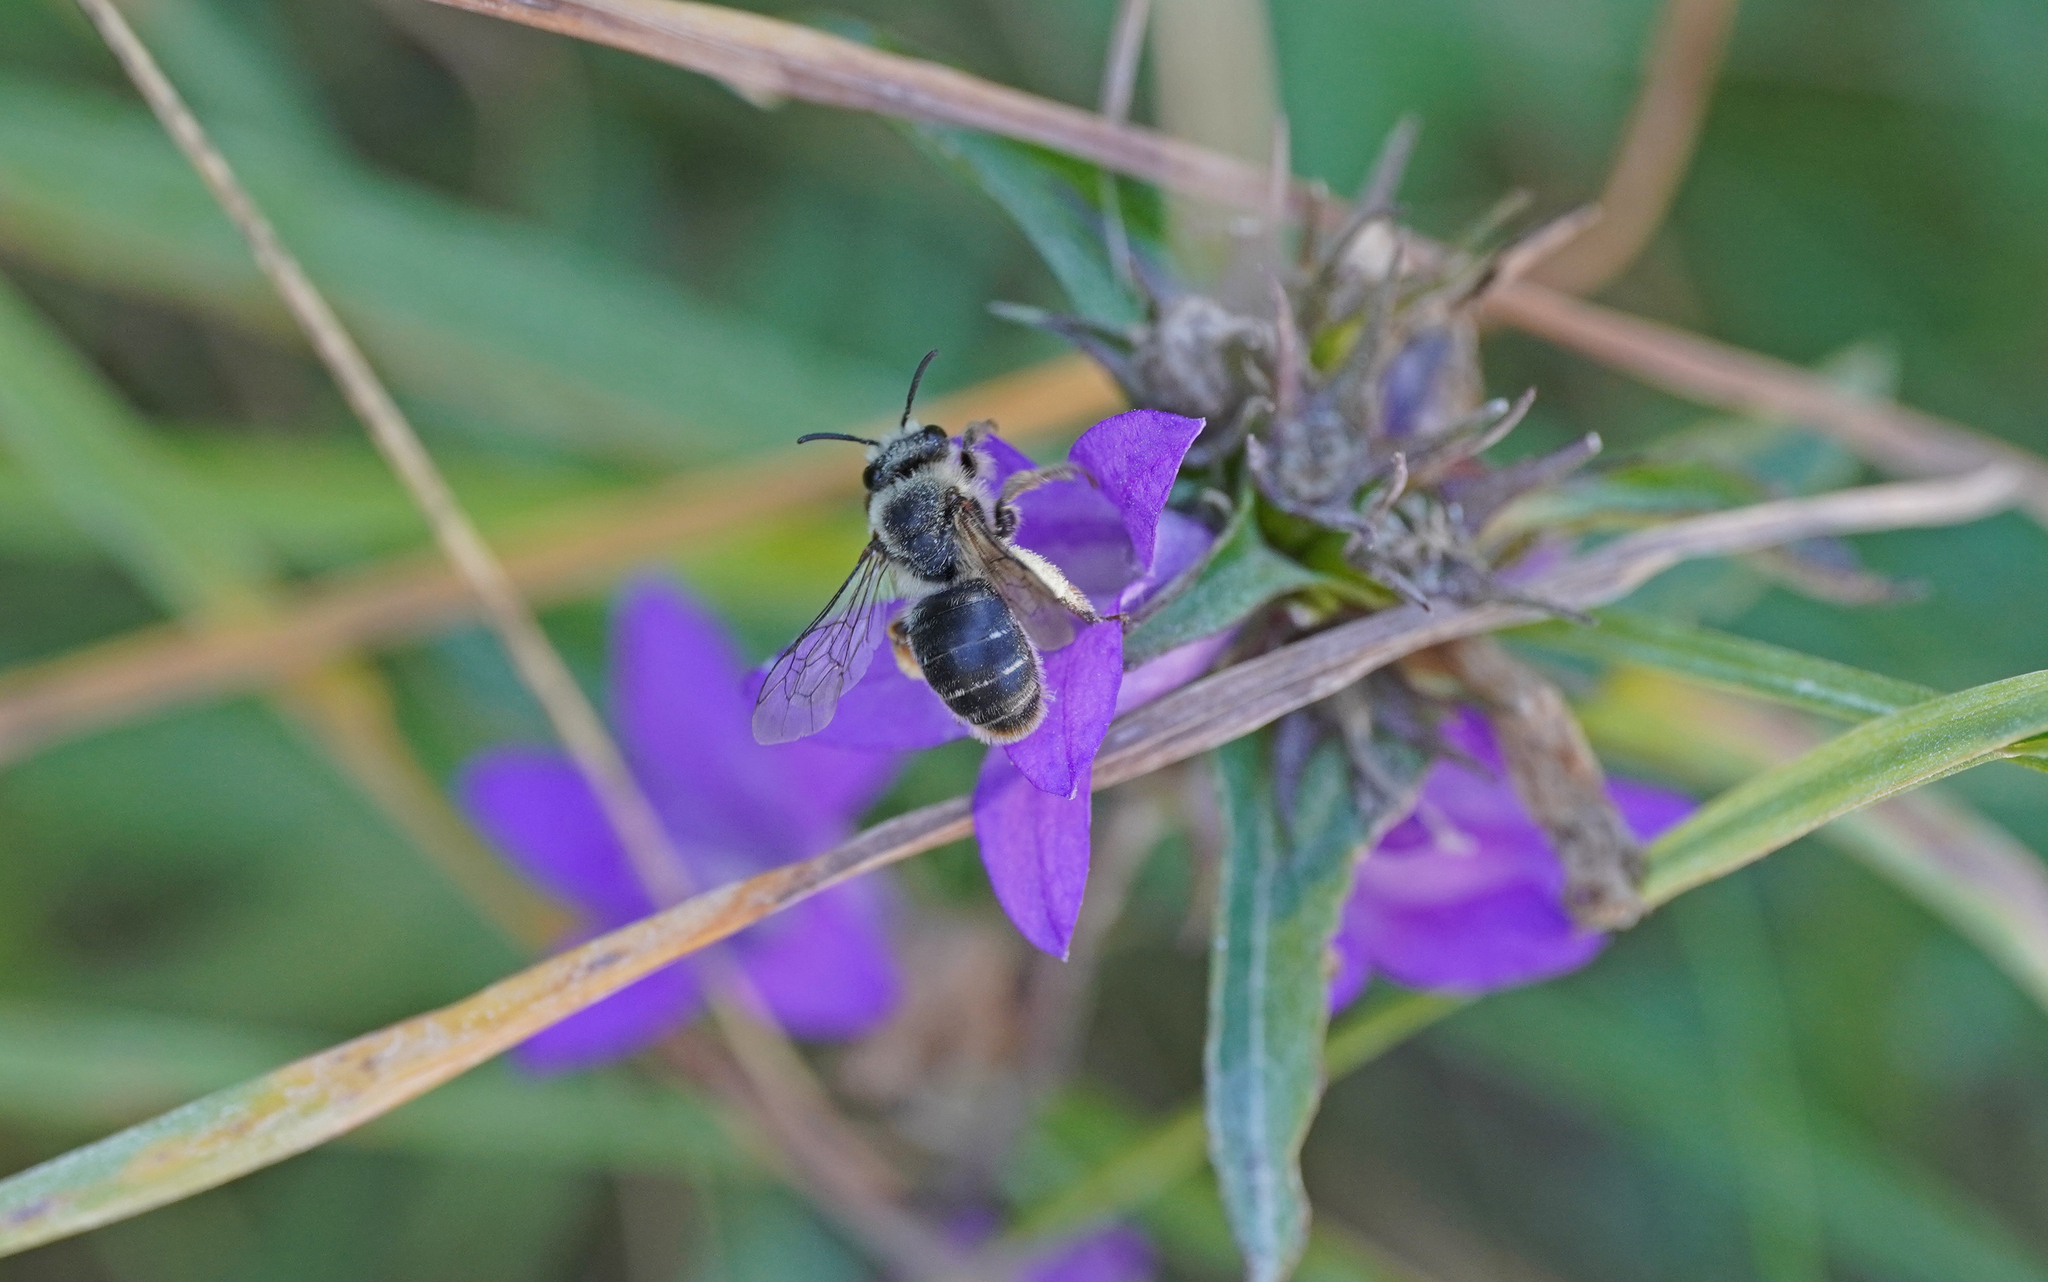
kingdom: Animalia
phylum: Arthropoda
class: Insecta
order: Hymenoptera
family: Melittidae
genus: Melitta
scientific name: Melitta haemorrhoidalis
